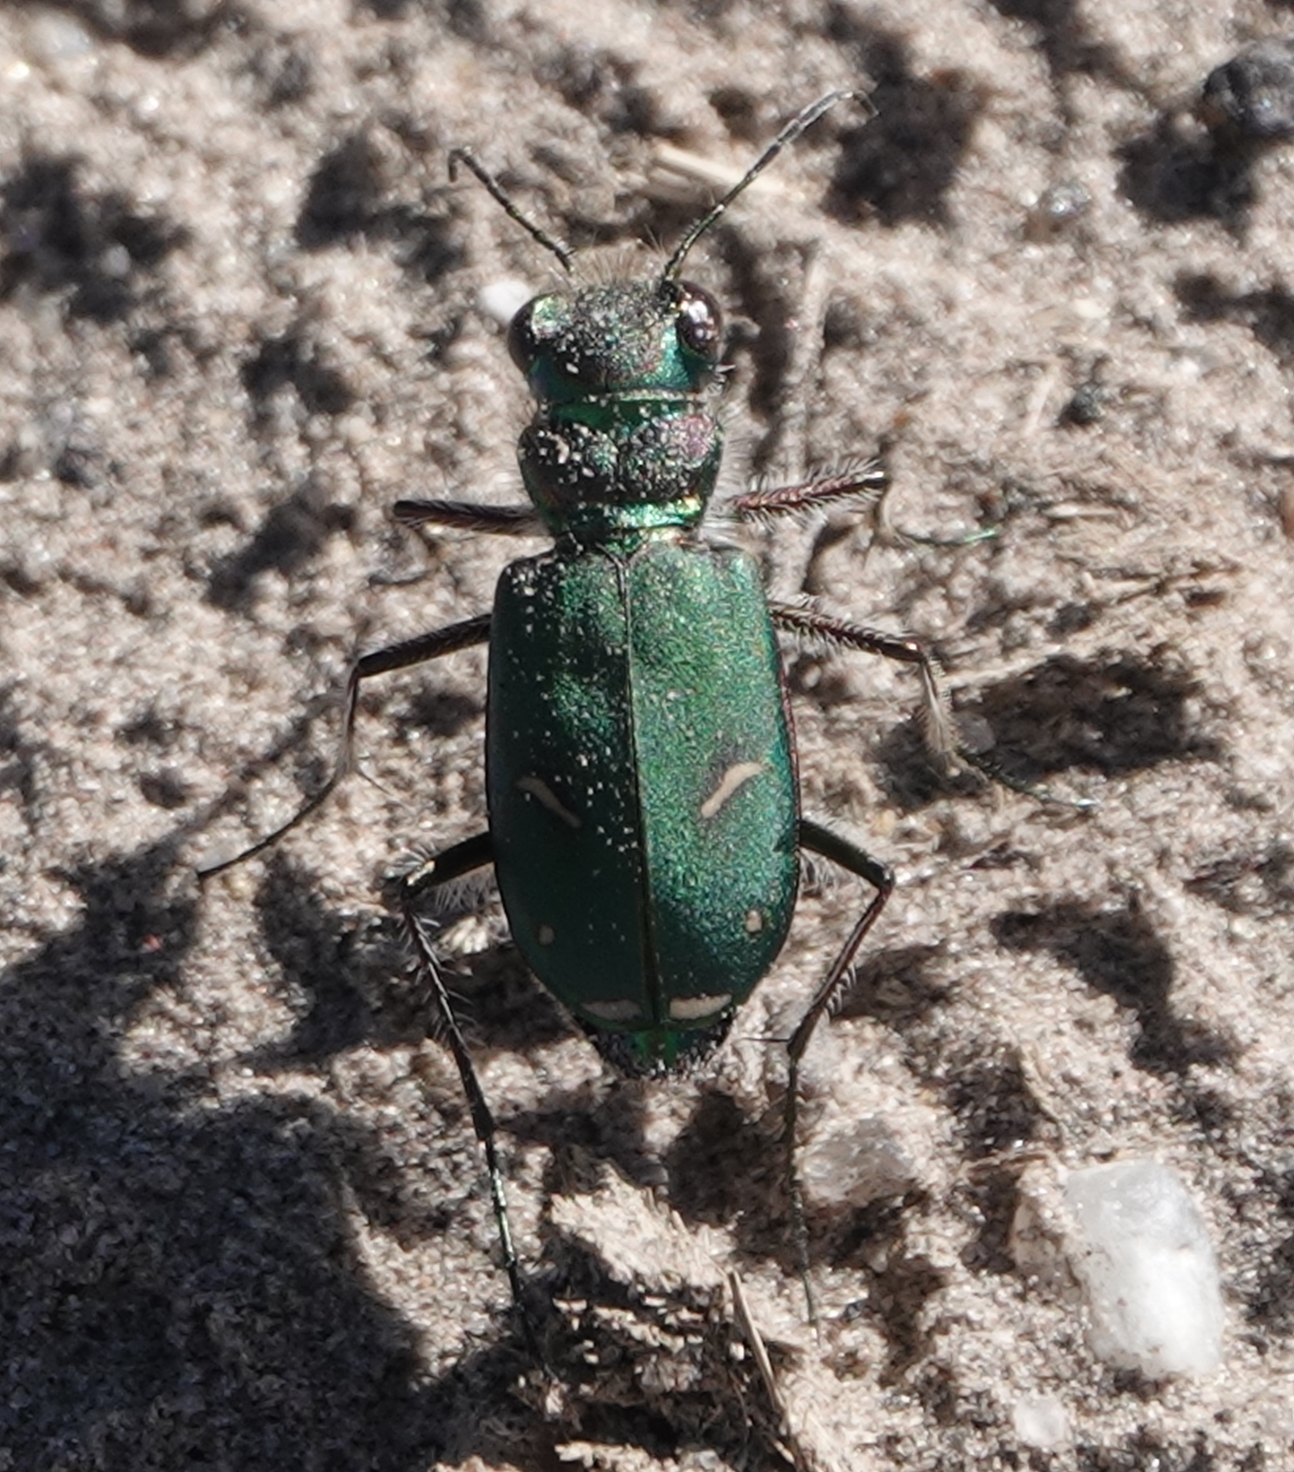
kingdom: Animalia
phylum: Arthropoda
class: Insecta
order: Coleoptera
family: Carabidae
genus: Cicindela
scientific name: Cicindela purpurea
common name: Cow path tiger beetle
